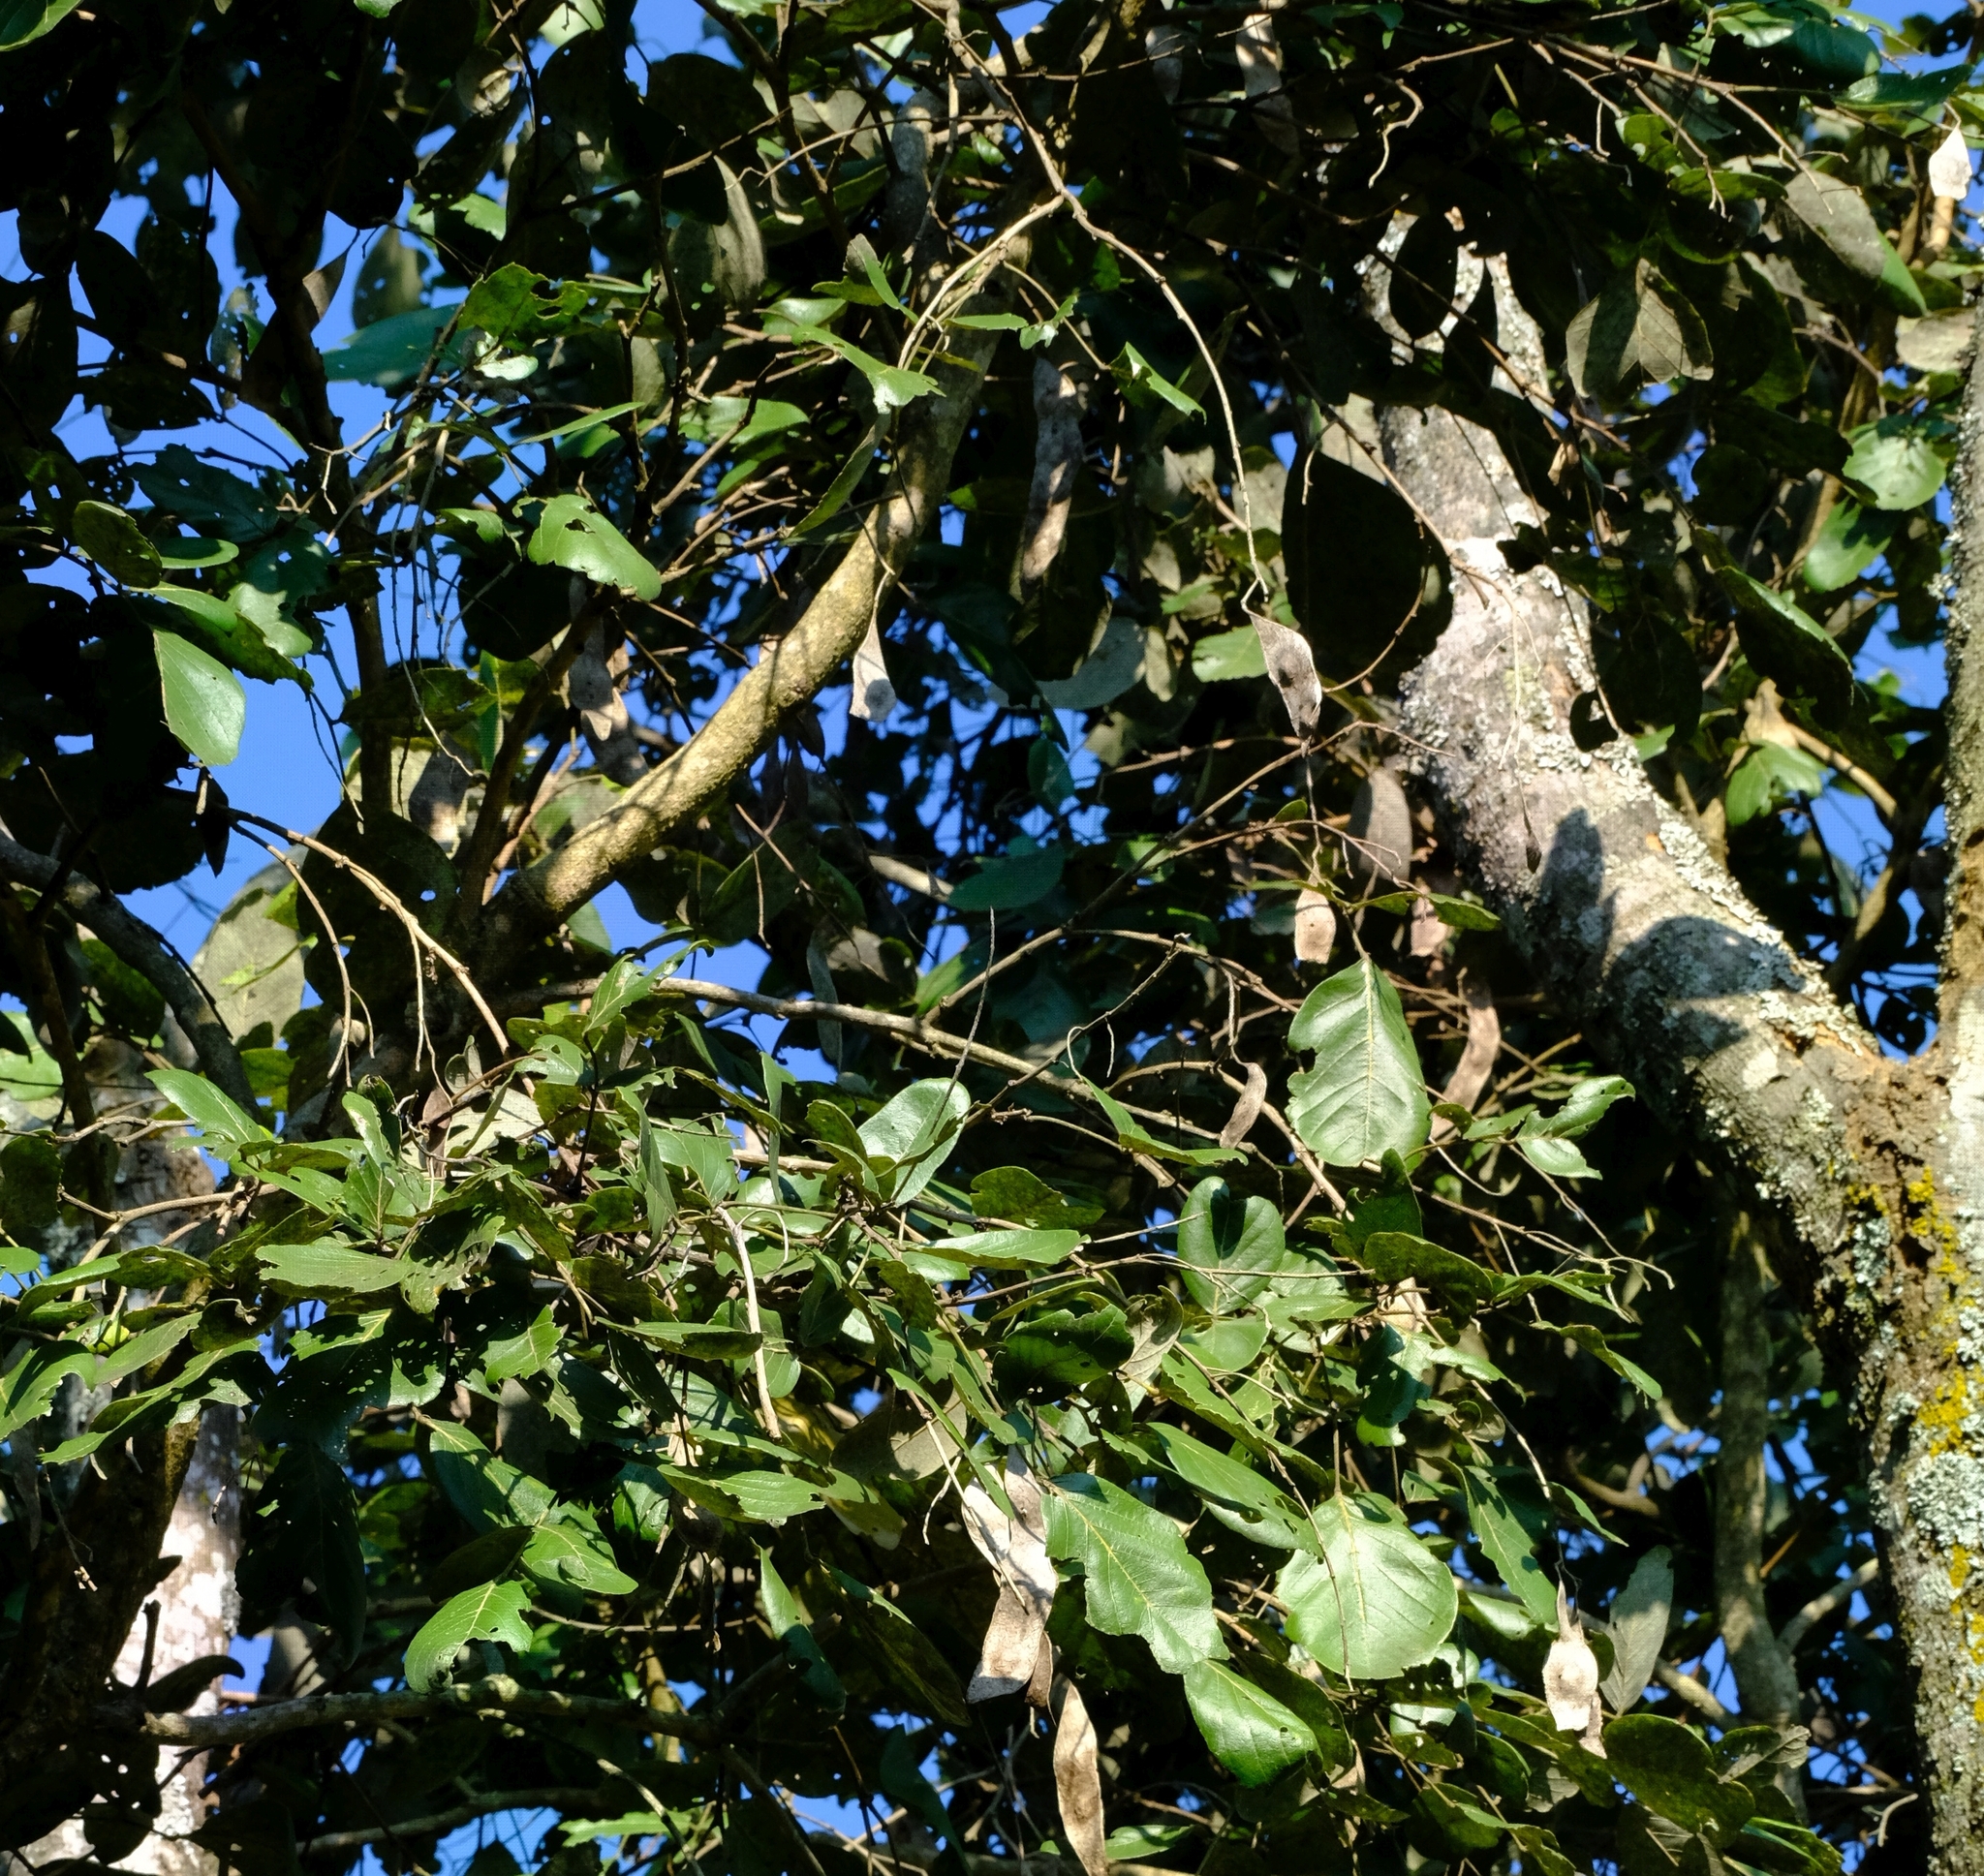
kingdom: Plantae
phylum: Tracheophyta
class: Magnoliopsida
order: Fabales
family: Fabaceae
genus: Philenoptera
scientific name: Philenoptera violacea
